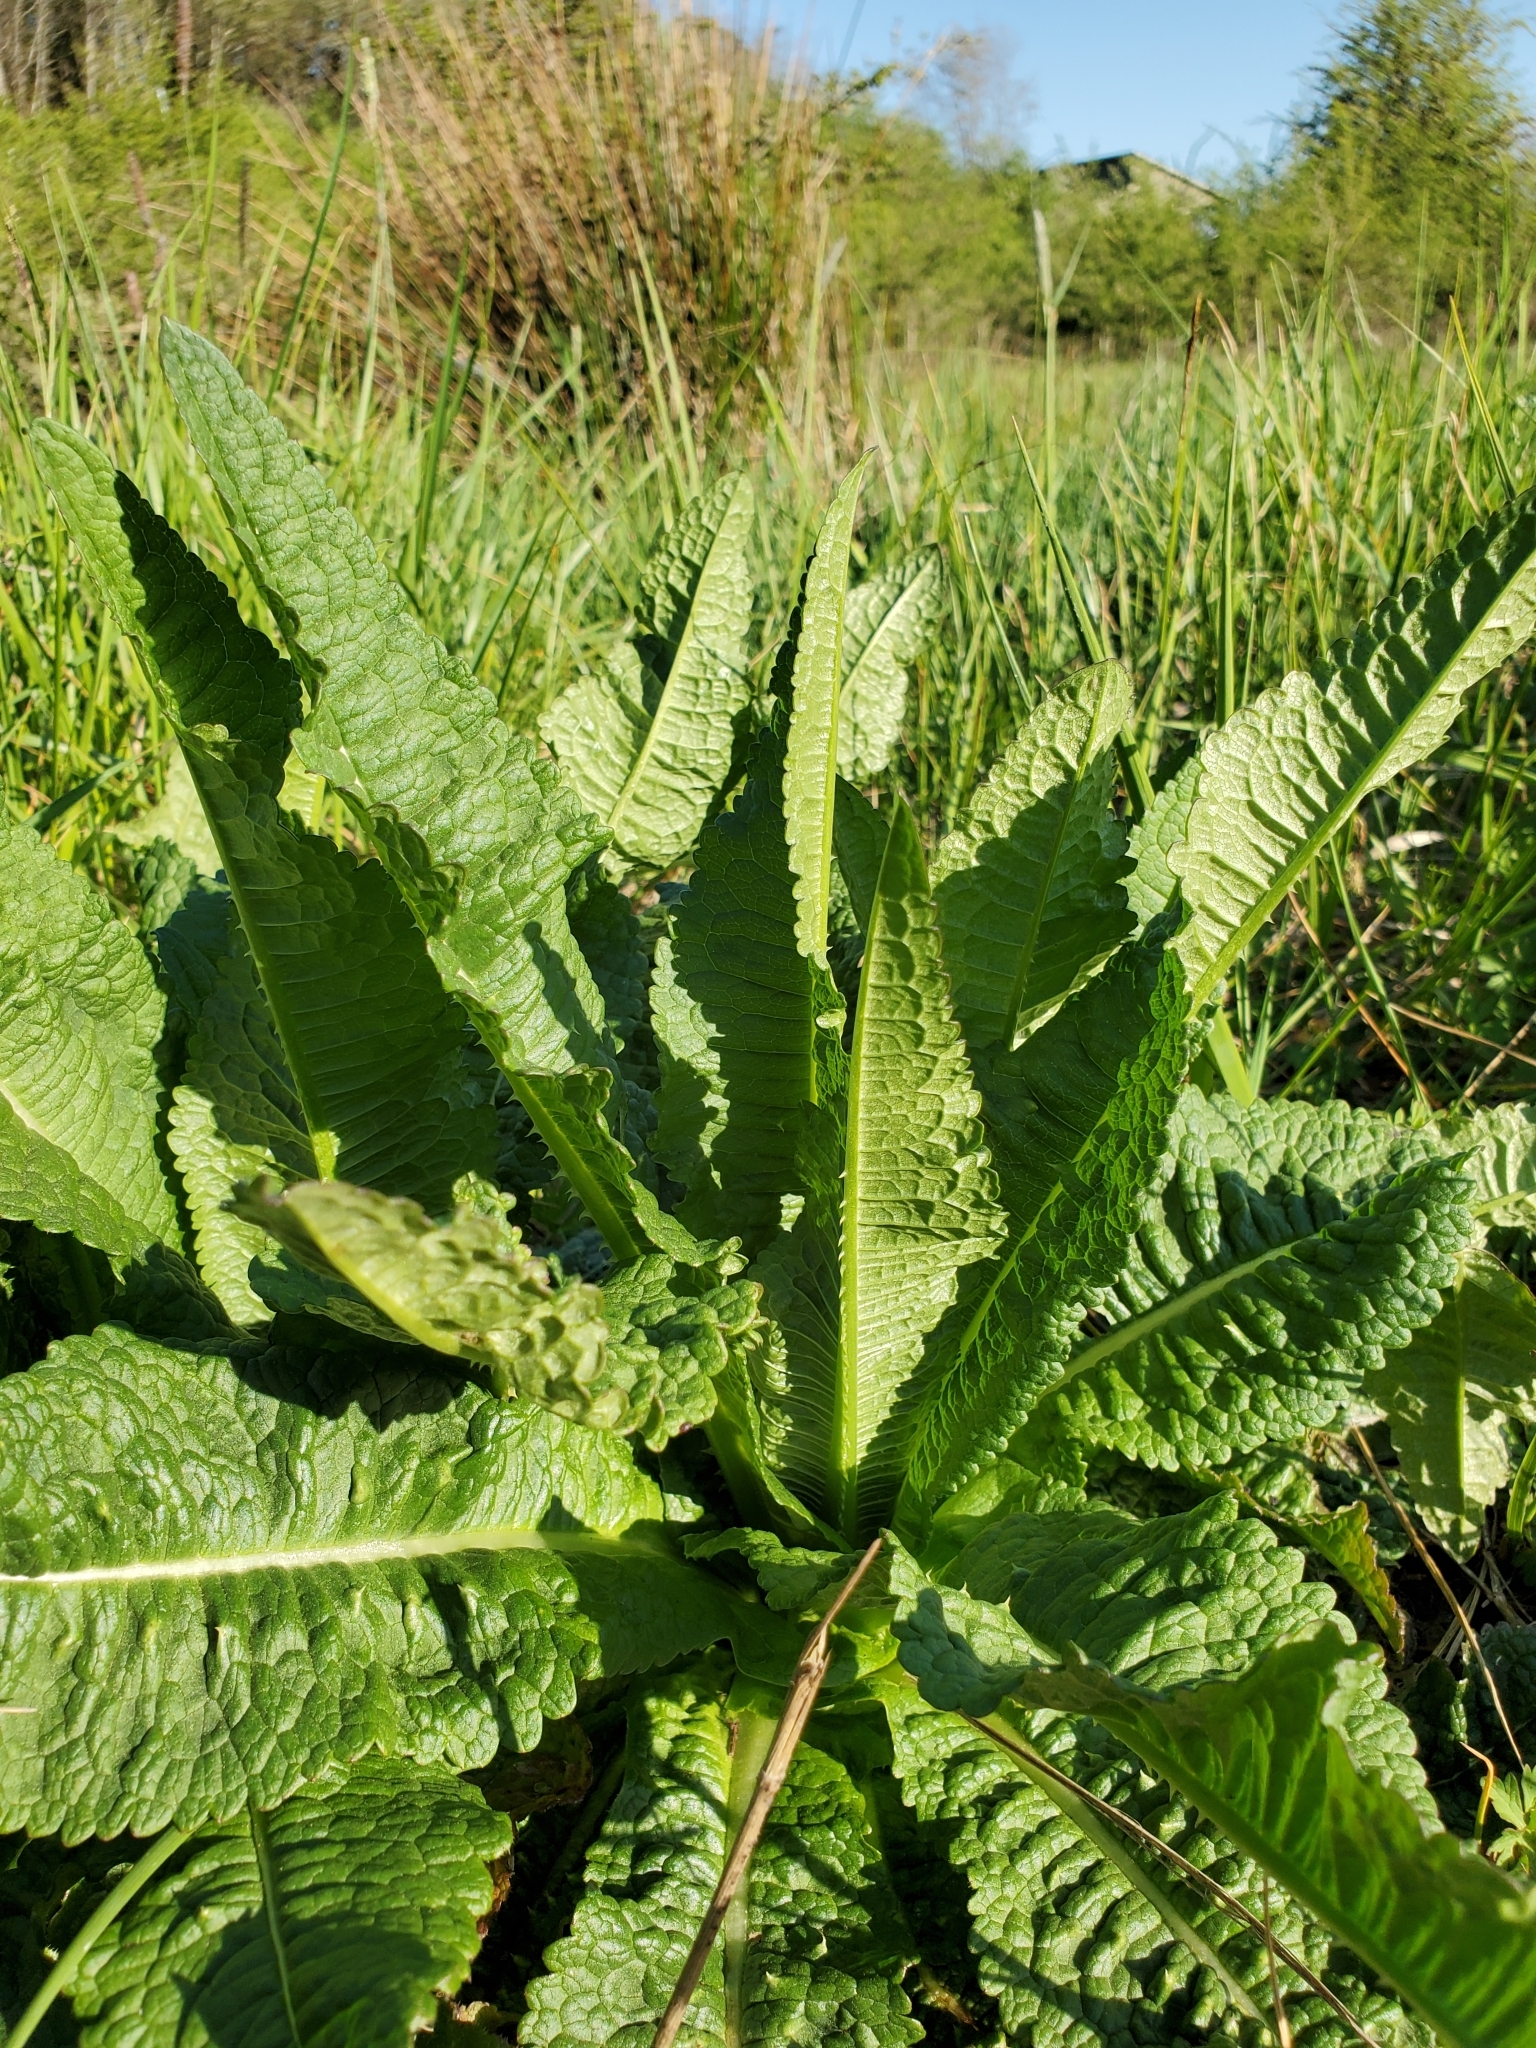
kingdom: Plantae
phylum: Tracheophyta
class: Magnoliopsida
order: Dipsacales
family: Caprifoliaceae
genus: Dipsacus
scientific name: Dipsacus fullonum
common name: Teasel
